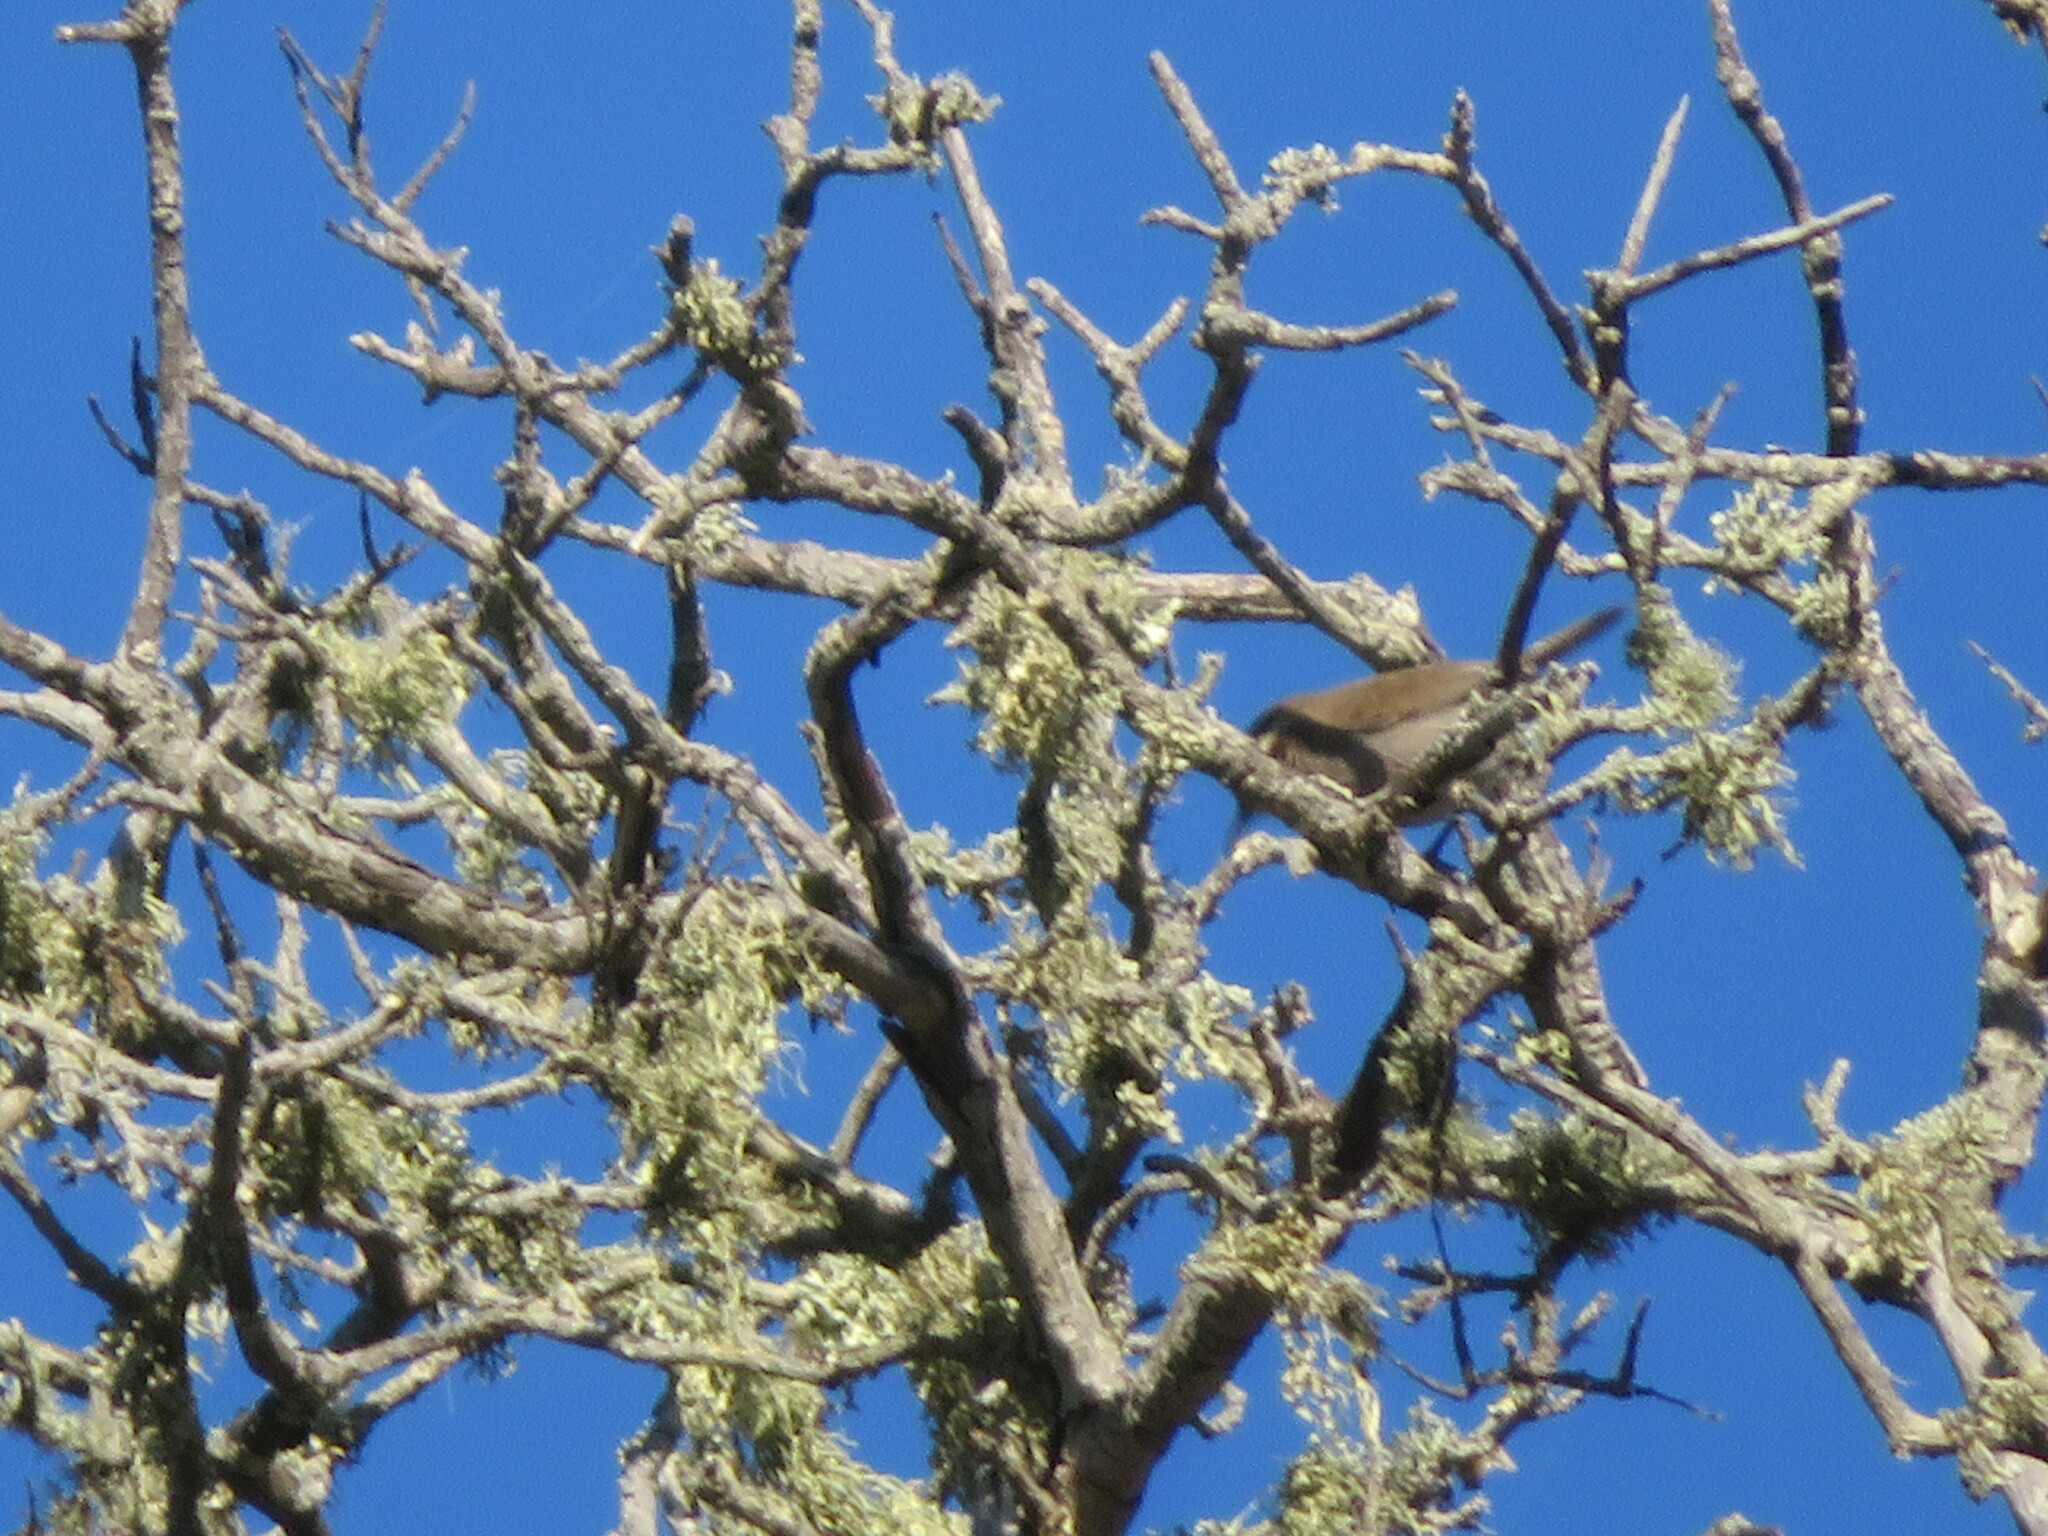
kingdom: Animalia
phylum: Chordata
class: Aves
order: Passeriformes
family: Troglodytidae
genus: Thryomanes
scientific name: Thryomanes bewickii
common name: Bewick's wren
